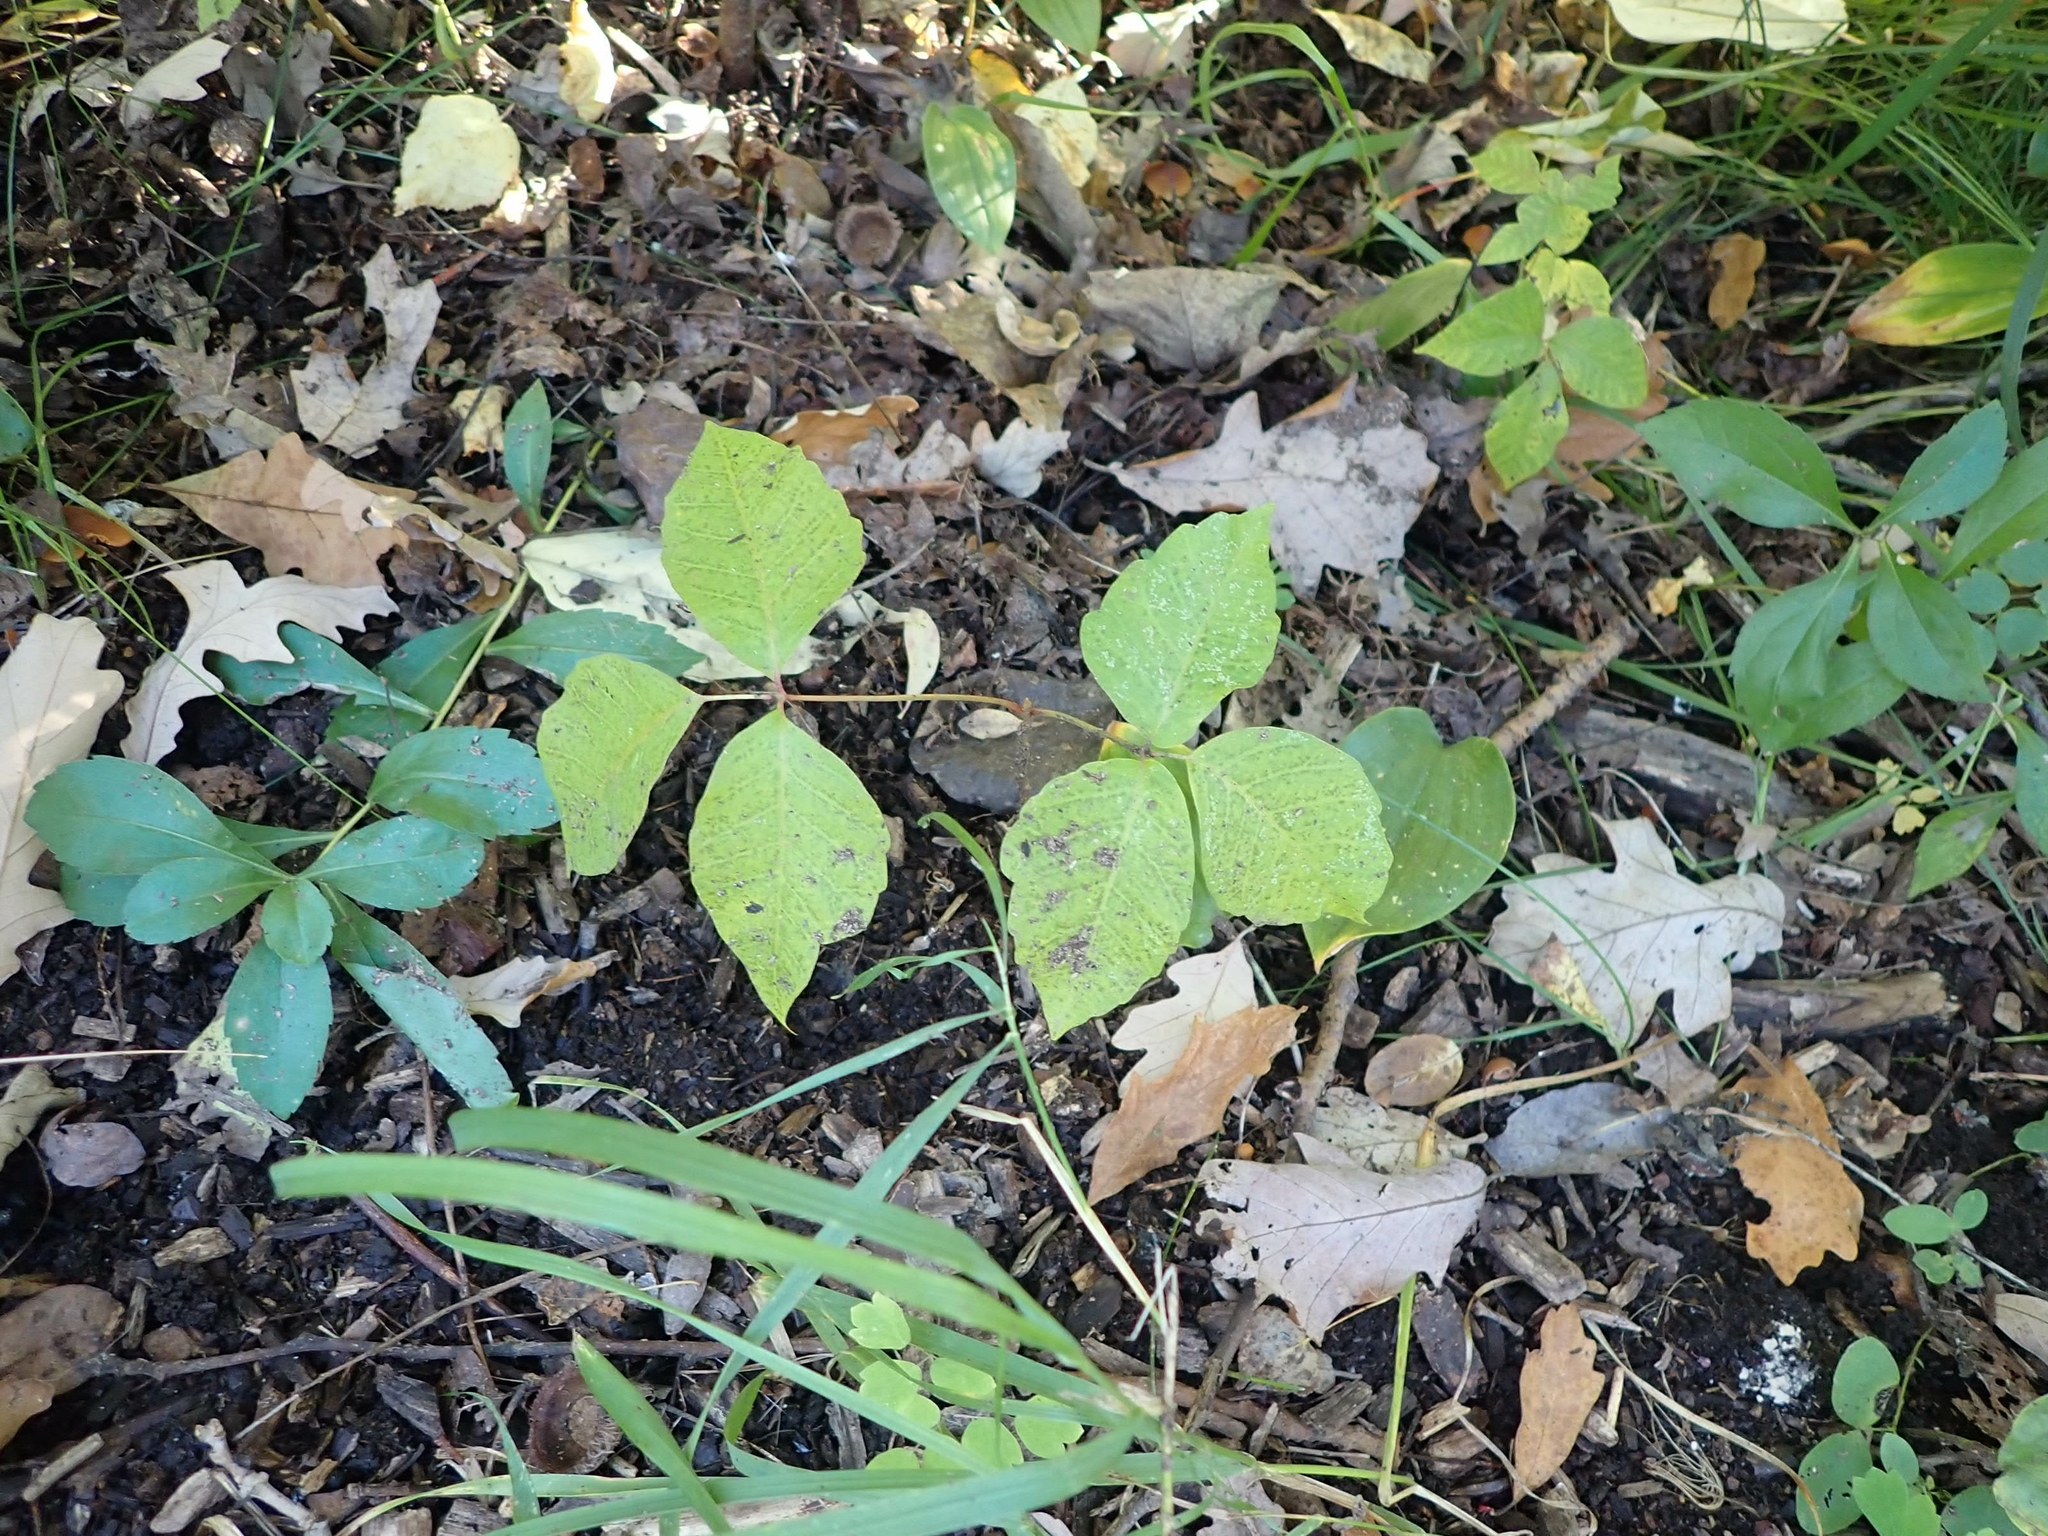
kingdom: Plantae
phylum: Tracheophyta
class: Magnoliopsida
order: Sapindales
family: Anacardiaceae
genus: Toxicodendron
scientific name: Toxicodendron rydbergii
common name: Rydberg's poison-ivy
